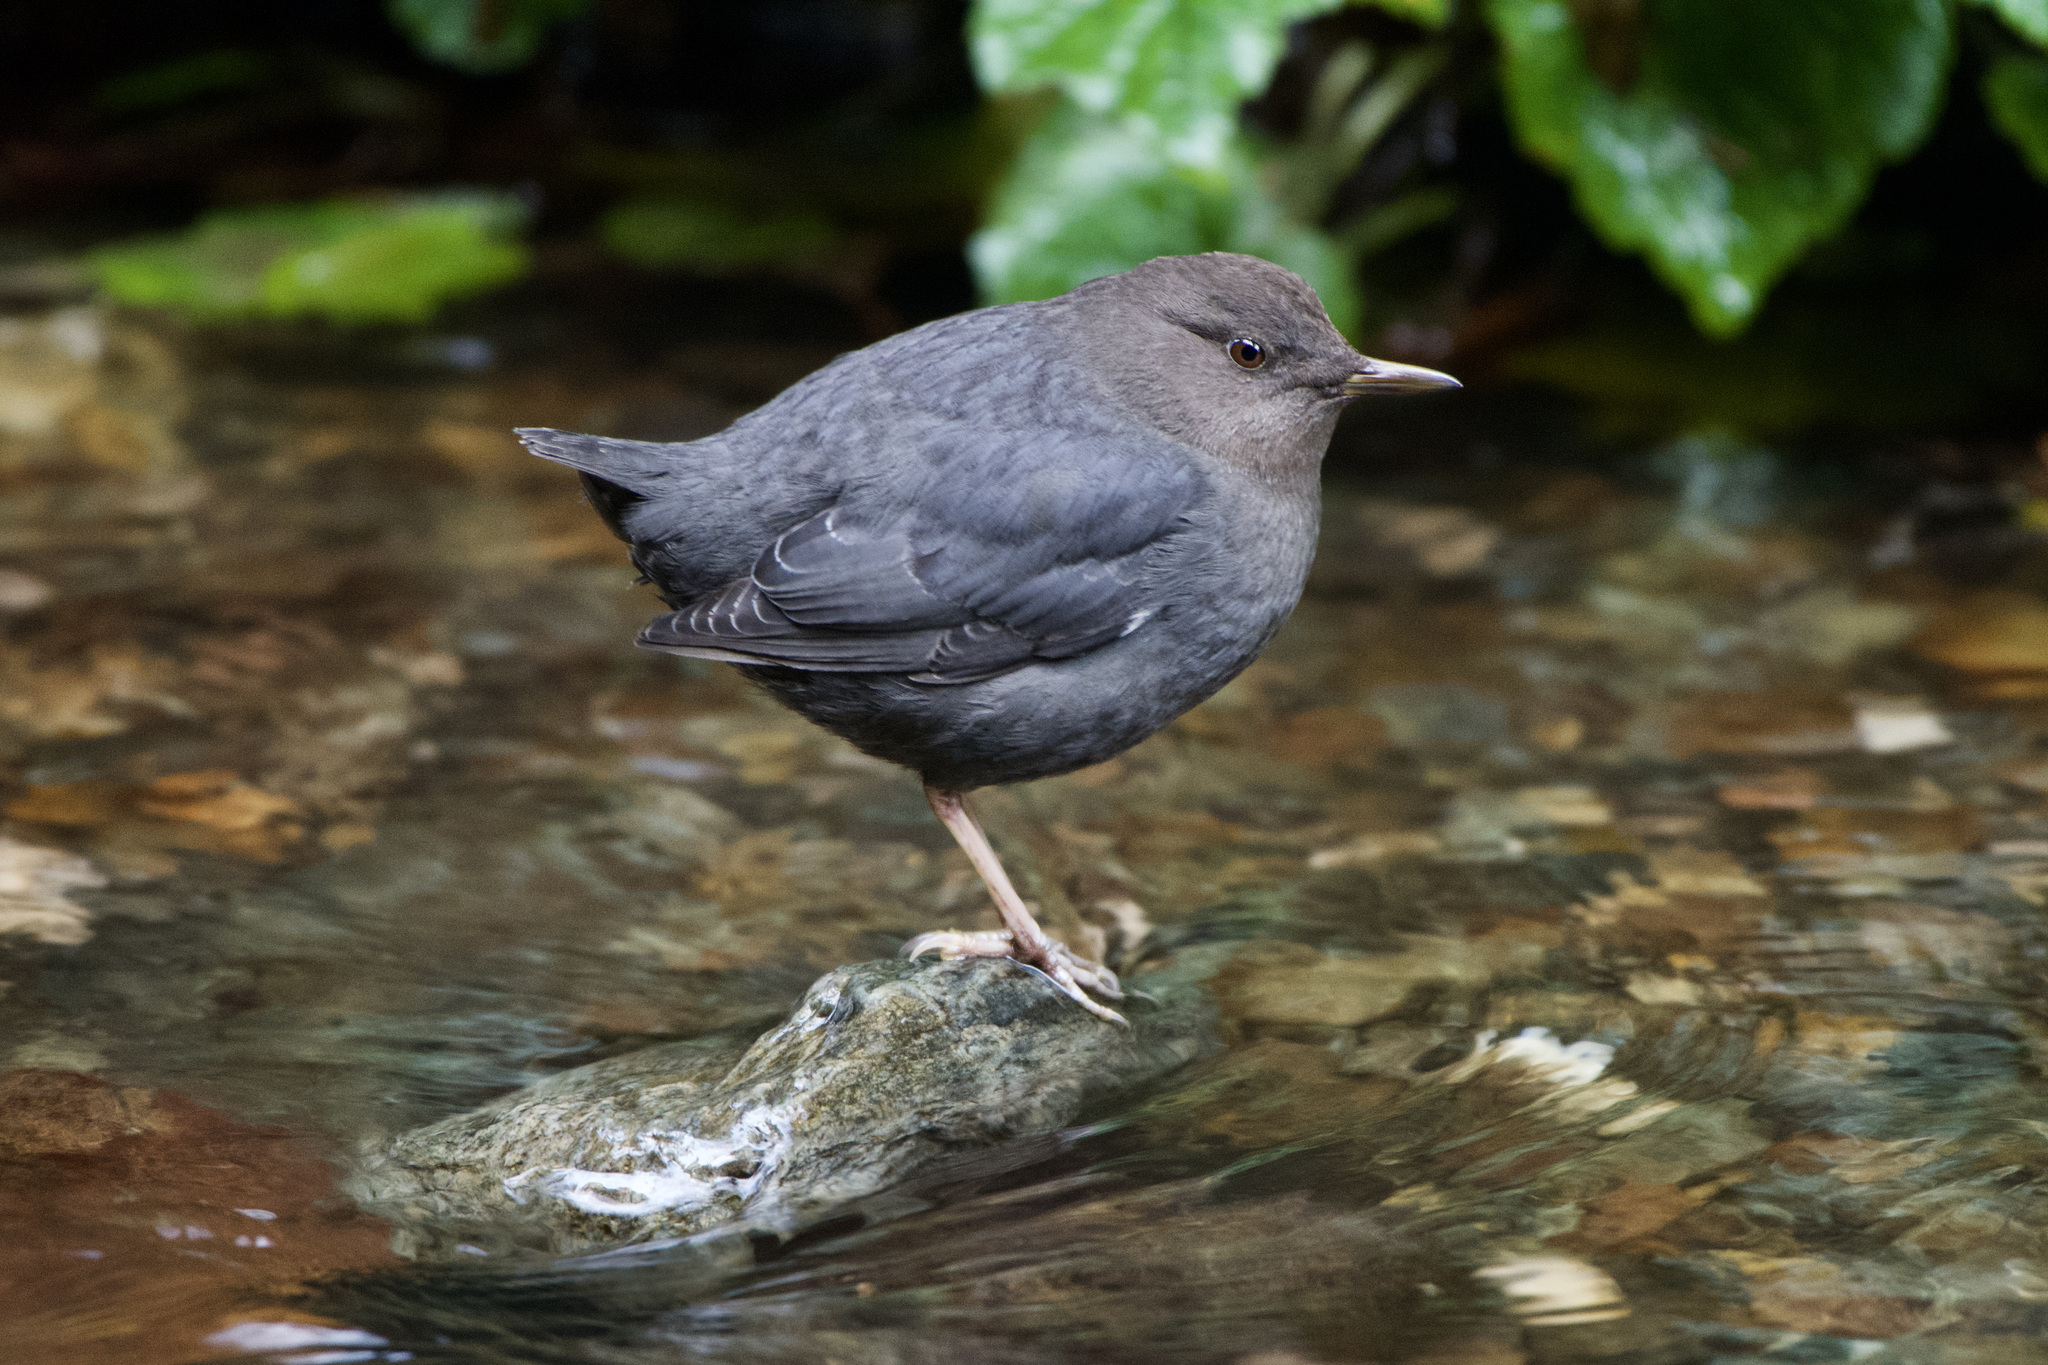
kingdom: Animalia
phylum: Chordata
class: Aves
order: Passeriformes
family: Cinclidae
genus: Cinclus
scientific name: Cinclus mexicanus
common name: American dipper
